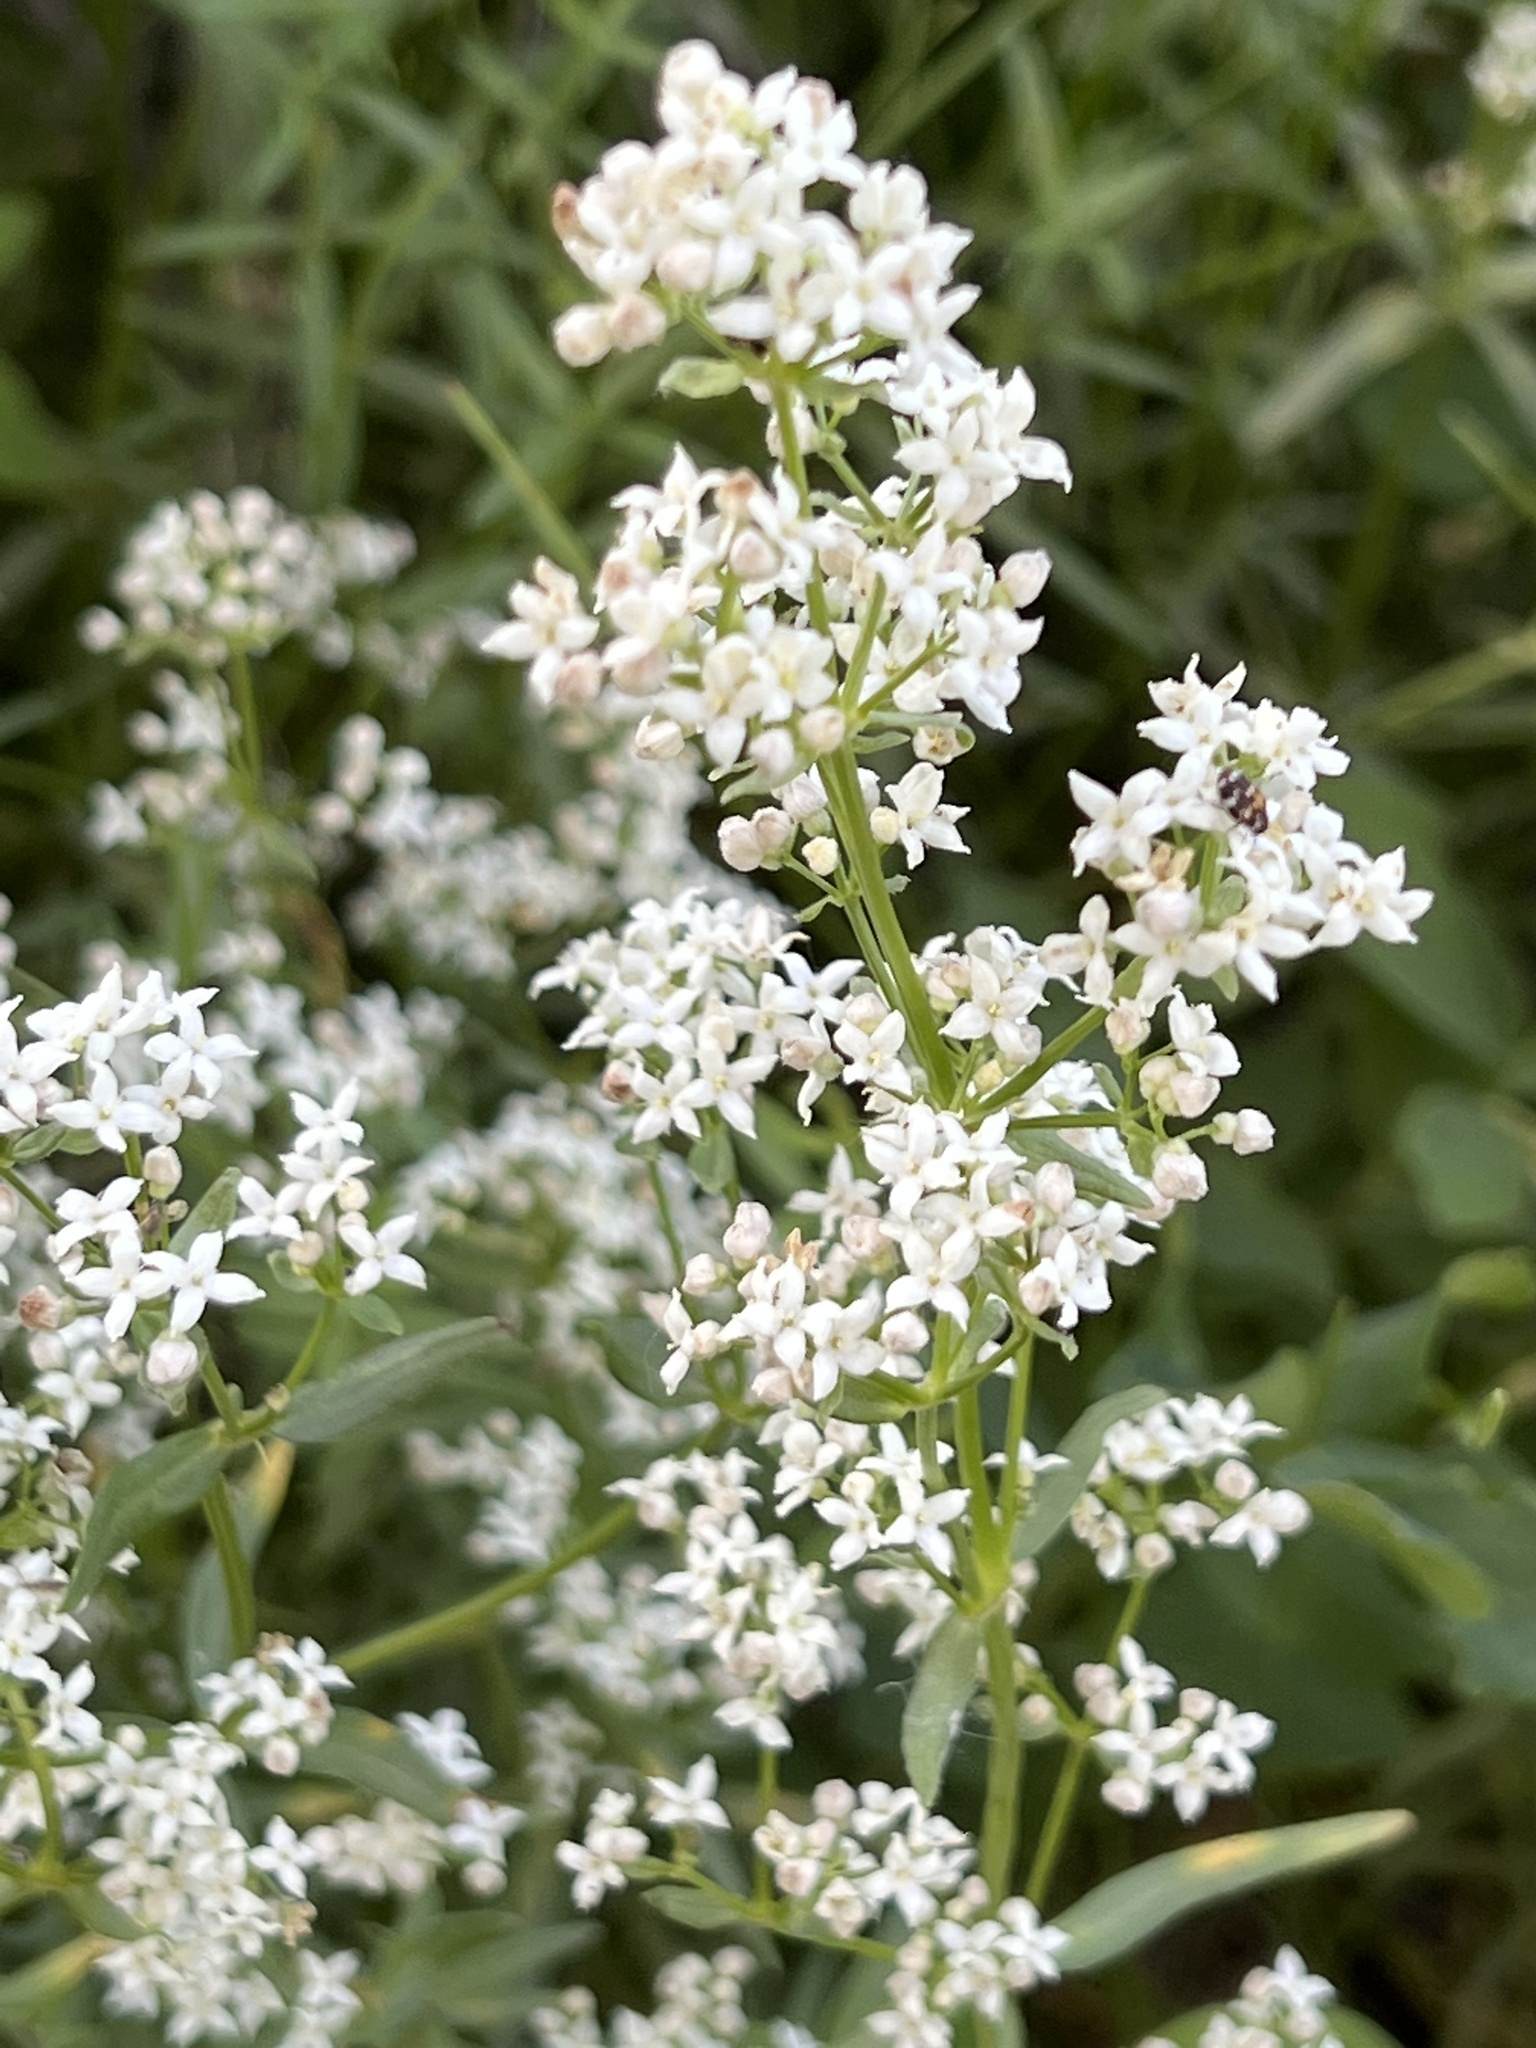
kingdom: Plantae
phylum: Tracheophyta
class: Magnoliopsida
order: Gentianales
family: Rubiaceae
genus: Galium
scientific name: Galium boreale
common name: Northern bedstraw
